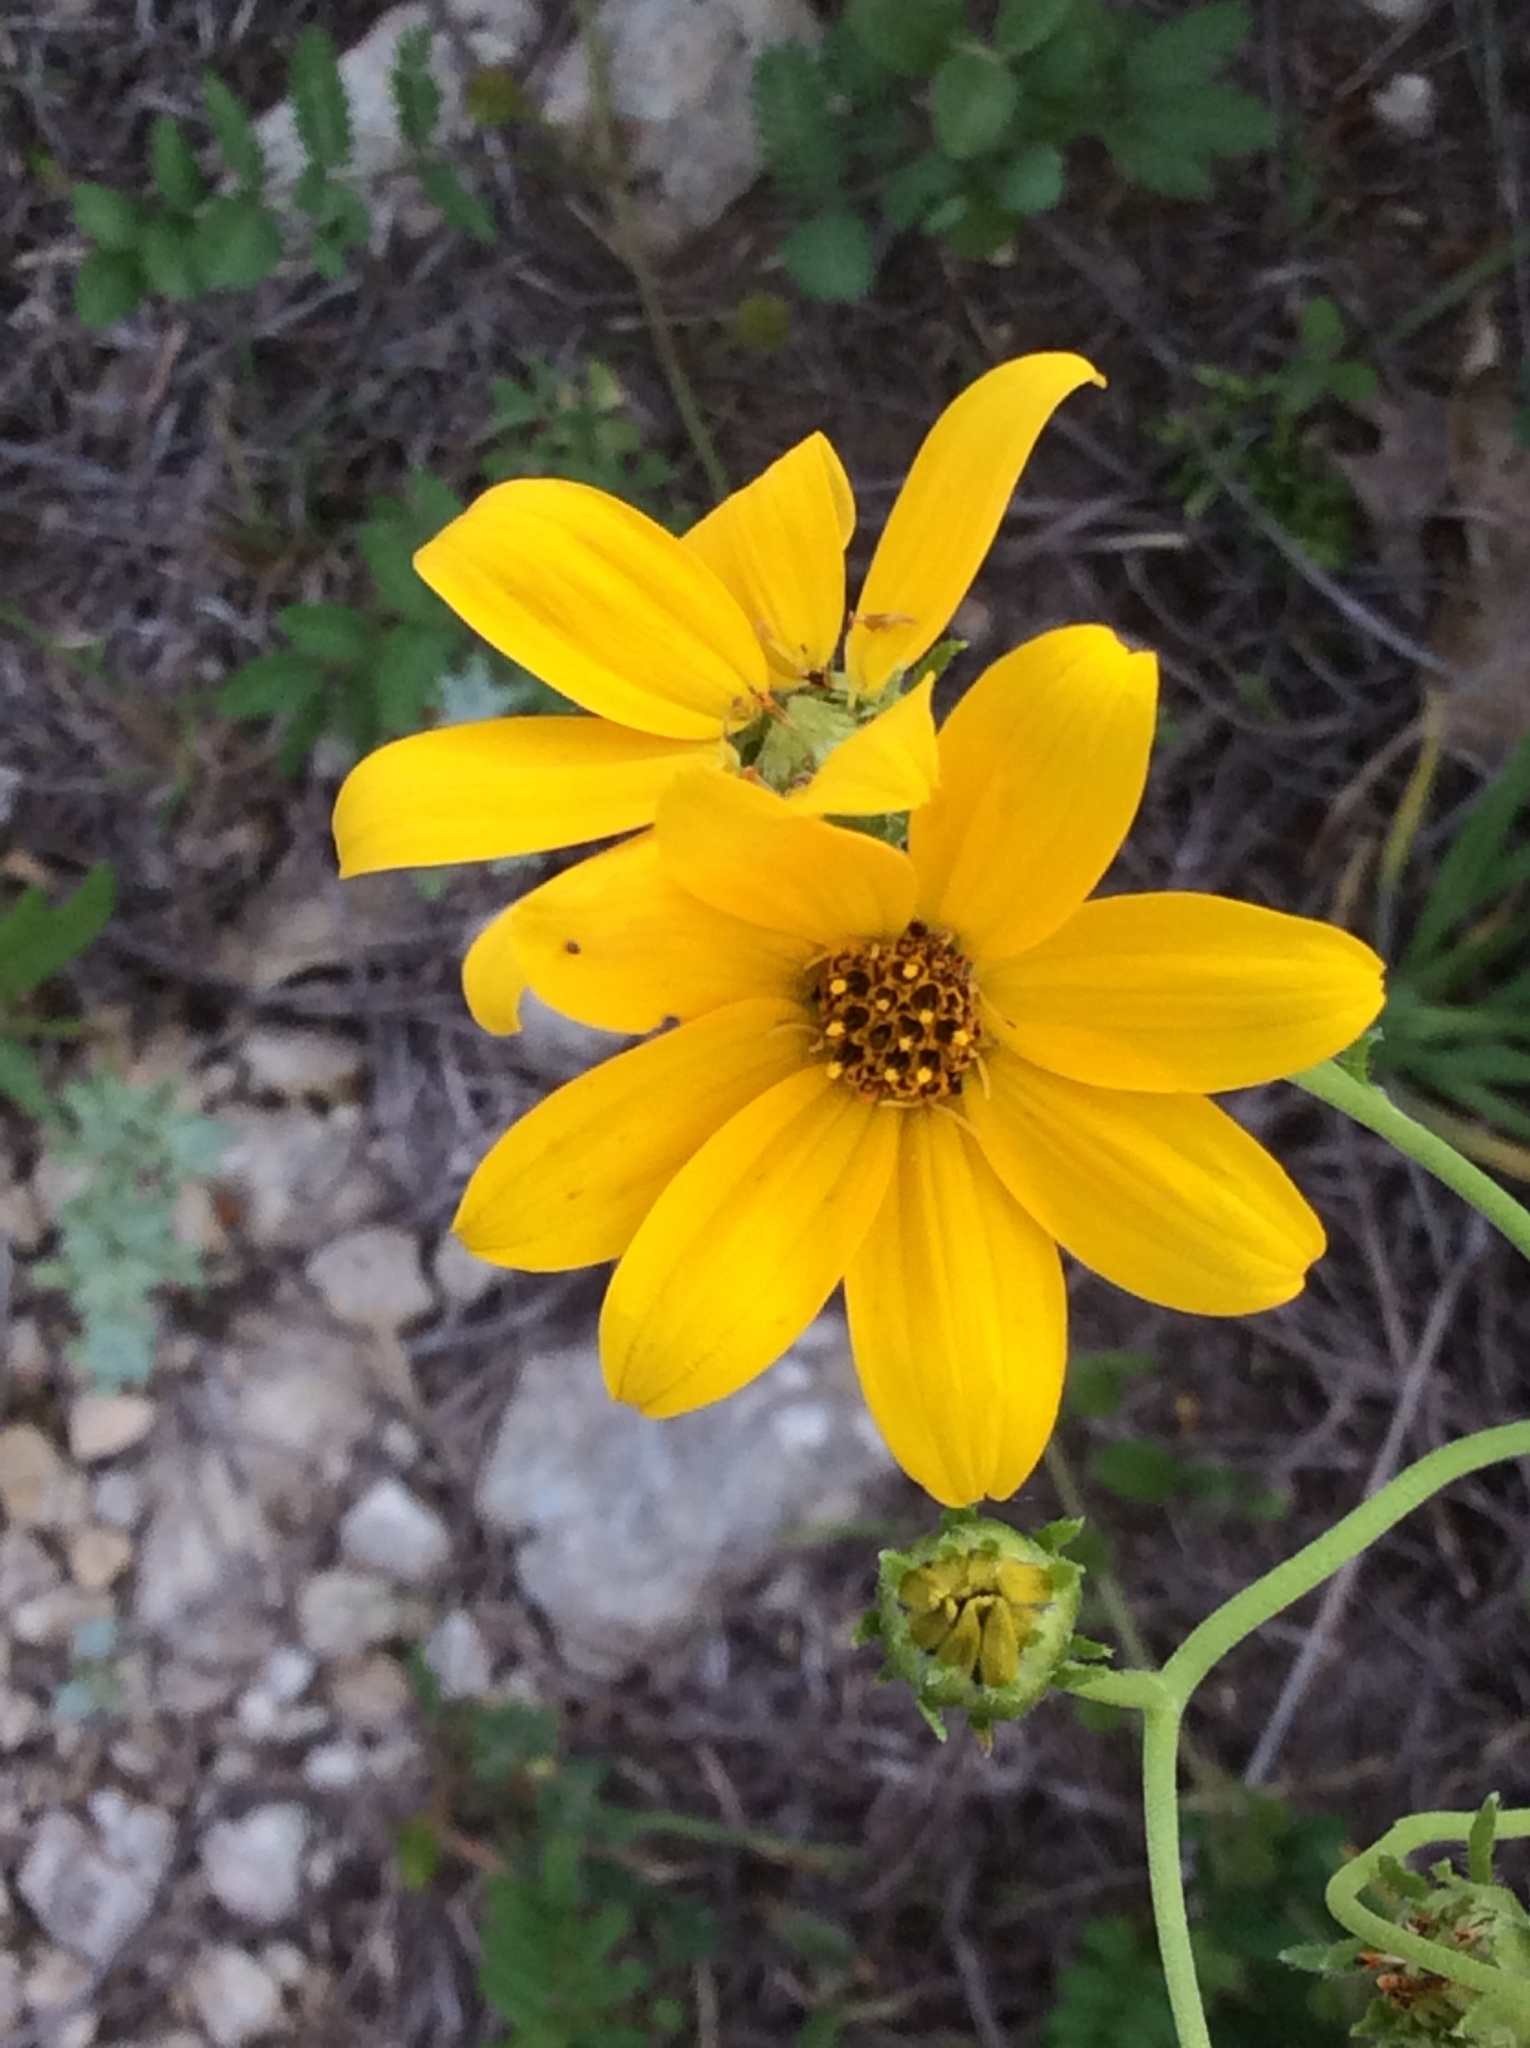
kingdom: Plantae
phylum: Tracheophyta
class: Magnoliopsida
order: Asterales
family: Asteraceae
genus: Engelmannia
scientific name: Engelmannia peristenia
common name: Engelmann's daisy
